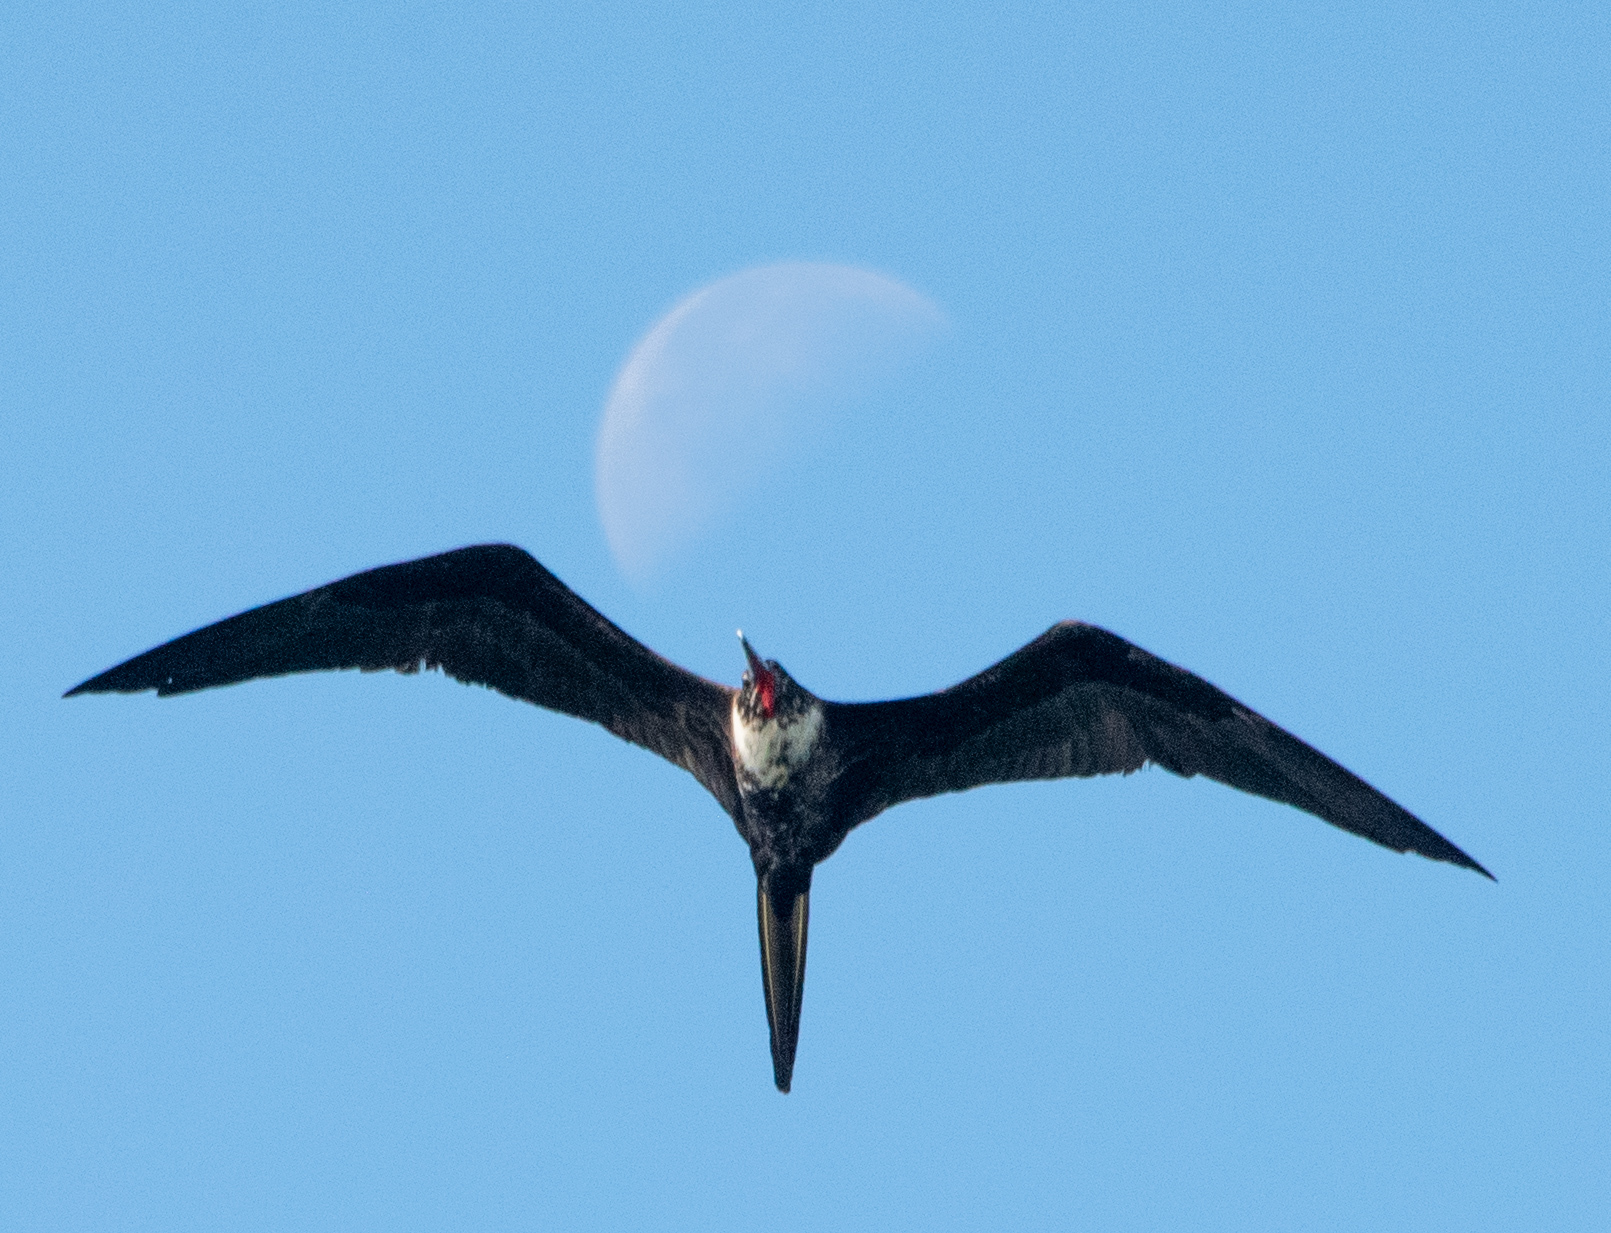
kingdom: Animalia
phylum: Chordata
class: Aves
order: Suliformes
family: Fregatidae
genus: Fregata
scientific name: Fregata magnificens
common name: Magnificent frigatebird
